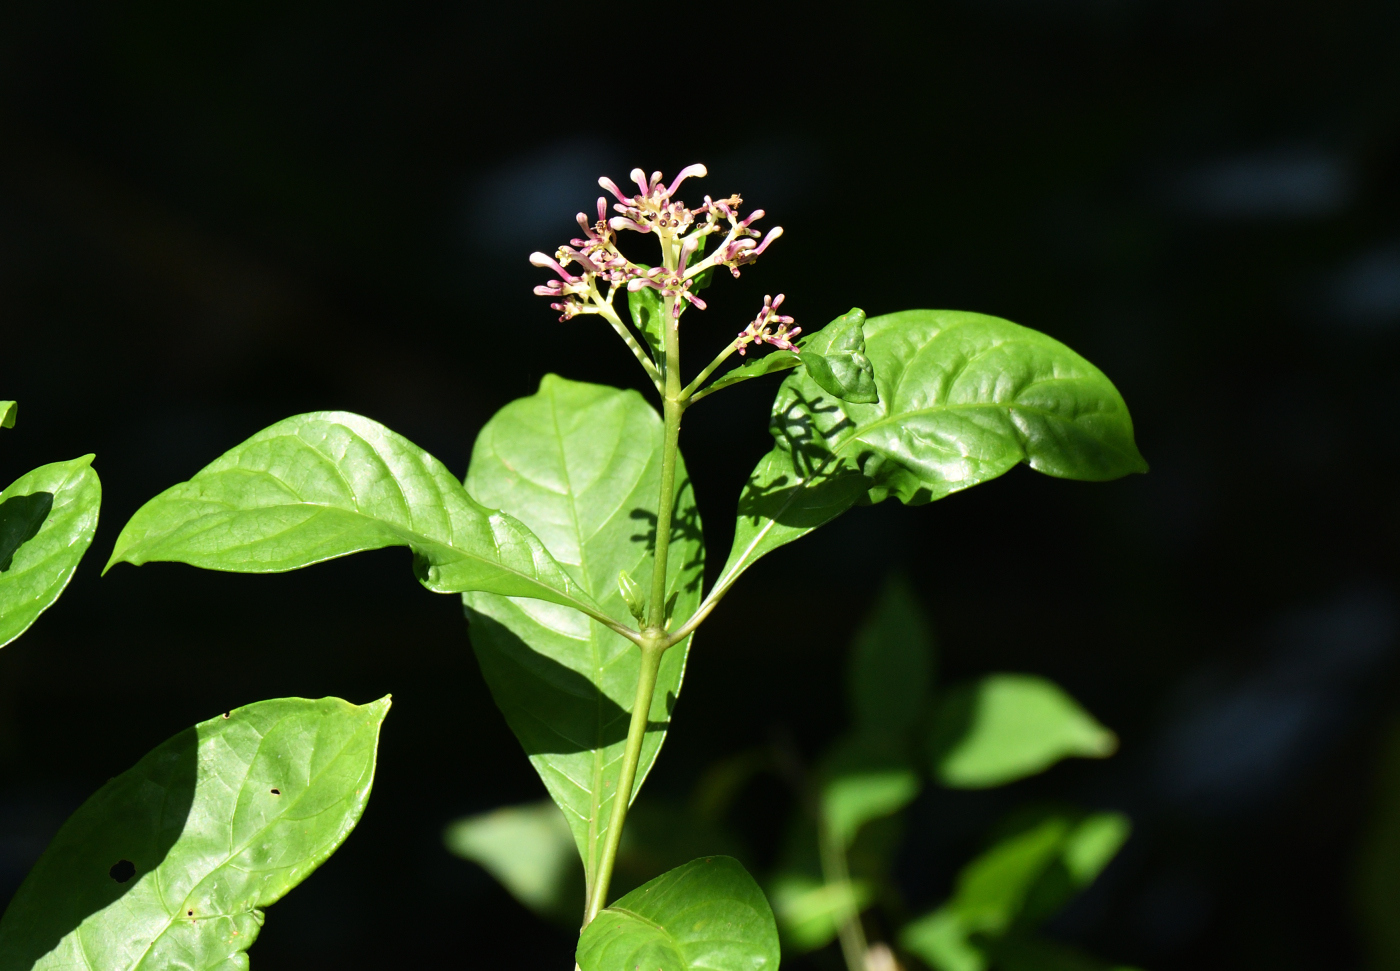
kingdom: Plantae
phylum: Tracheophyta
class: Magnoliopsida
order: Gentianales
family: Rubiaceae
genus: Chassalia
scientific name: Chassalia curviflora
